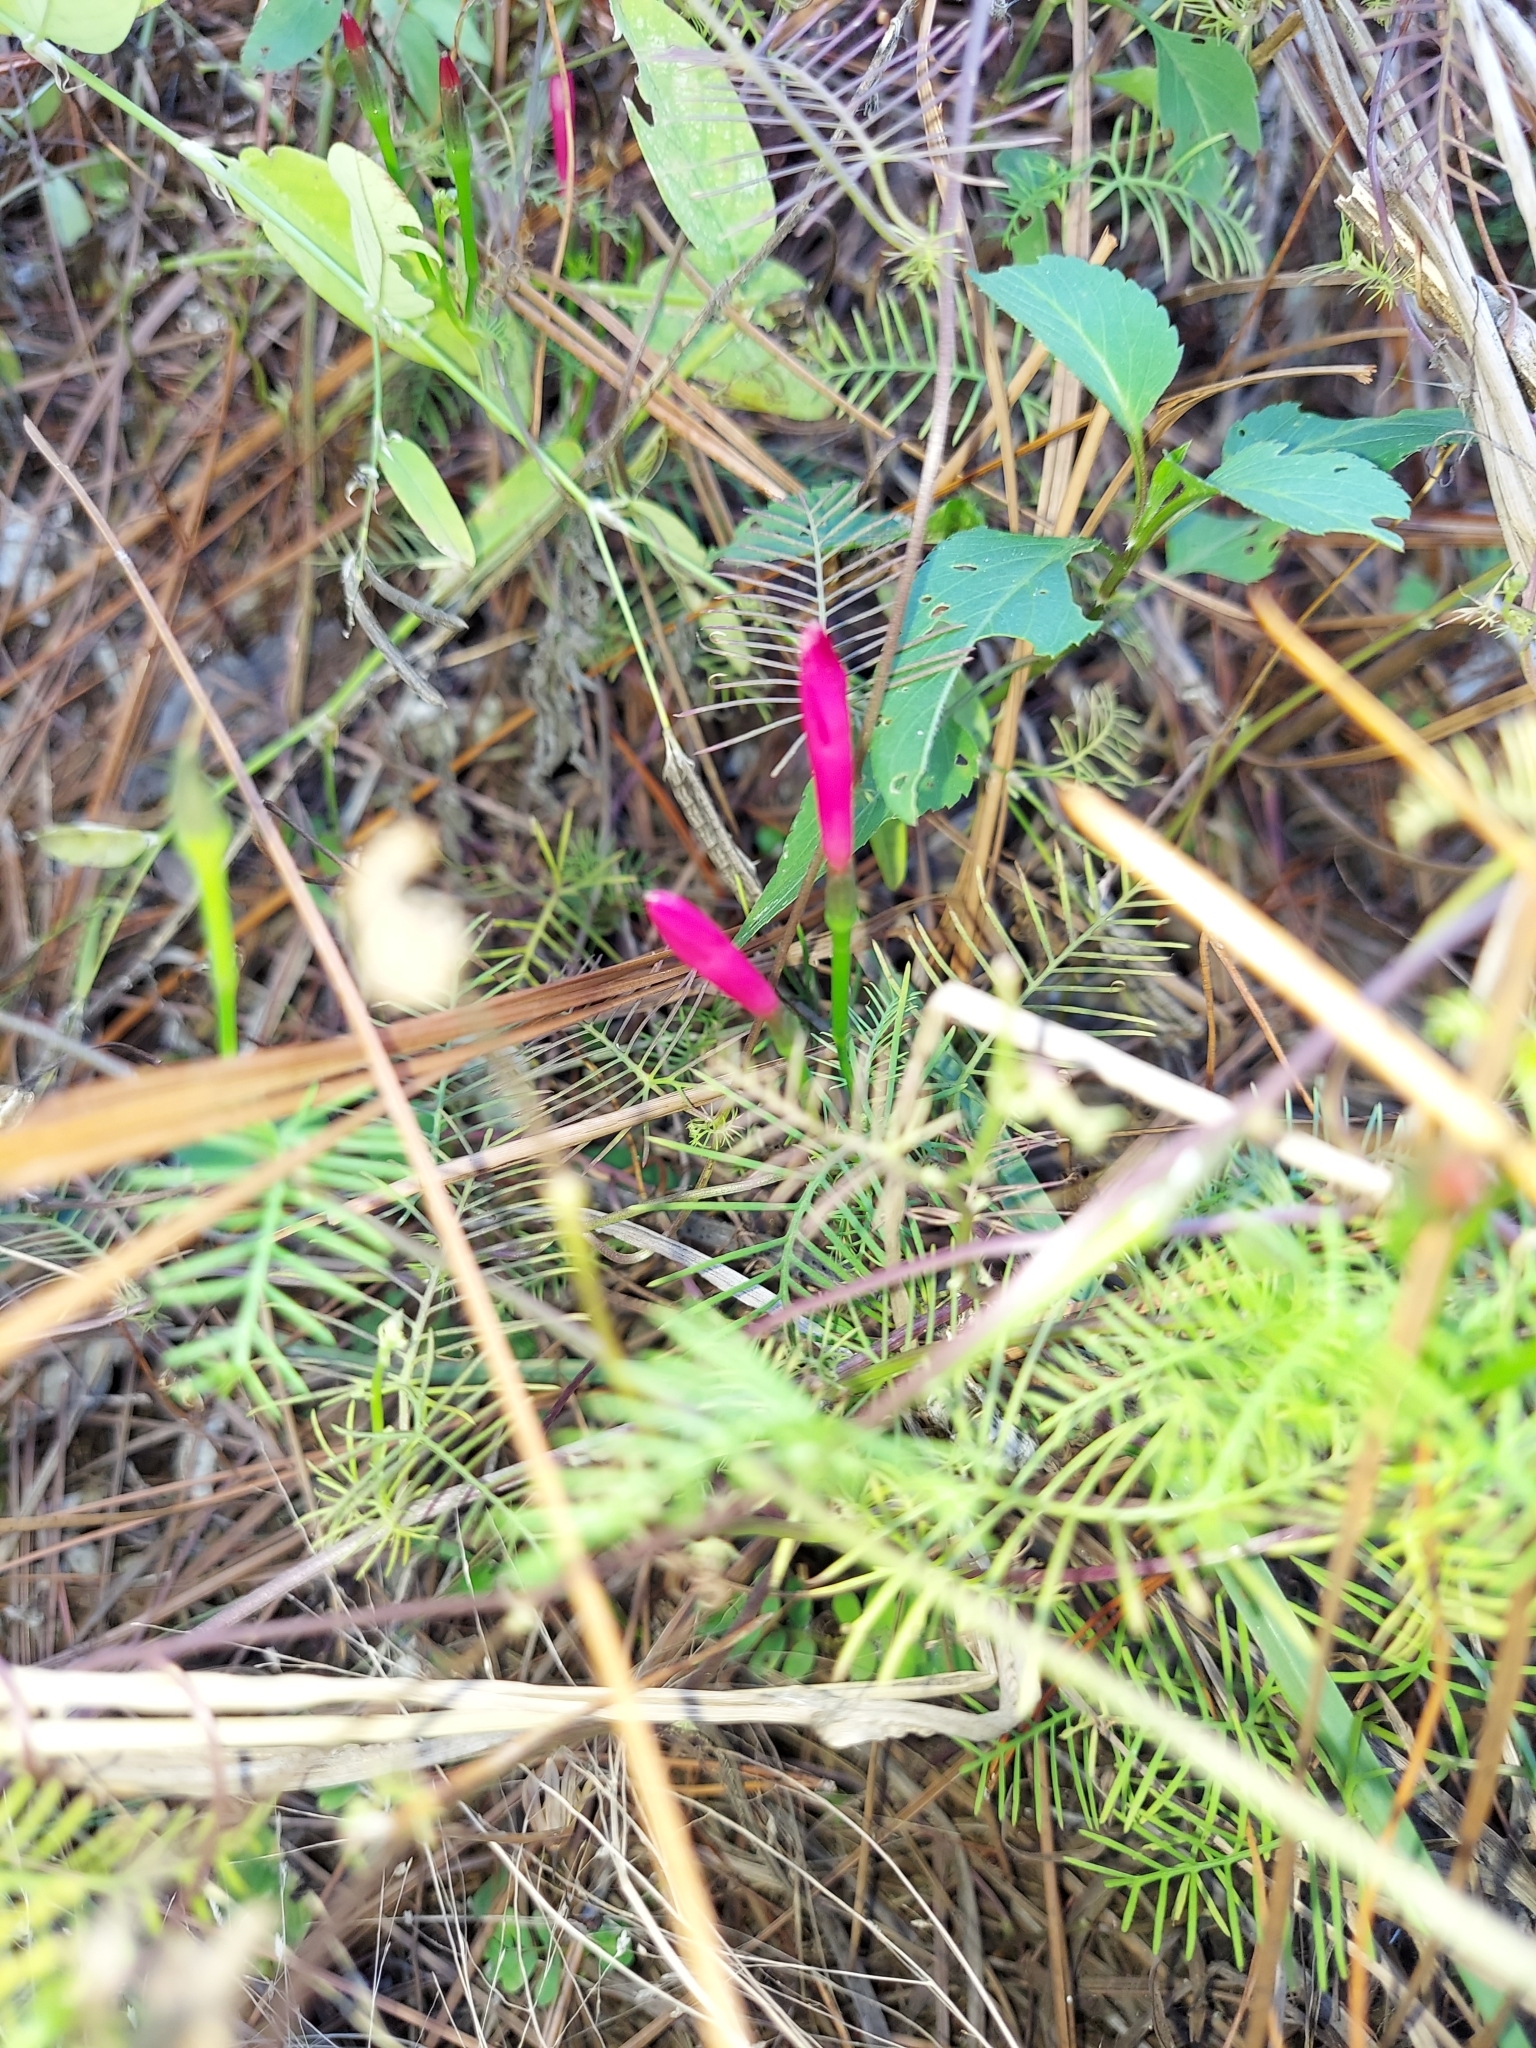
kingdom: Plantae
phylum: Tracheophyta
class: Magnoliopsida
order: Solanales
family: Convolvulaceae
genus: Ipomoea
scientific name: Ipomoea quamoclit
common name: Cypress vine
